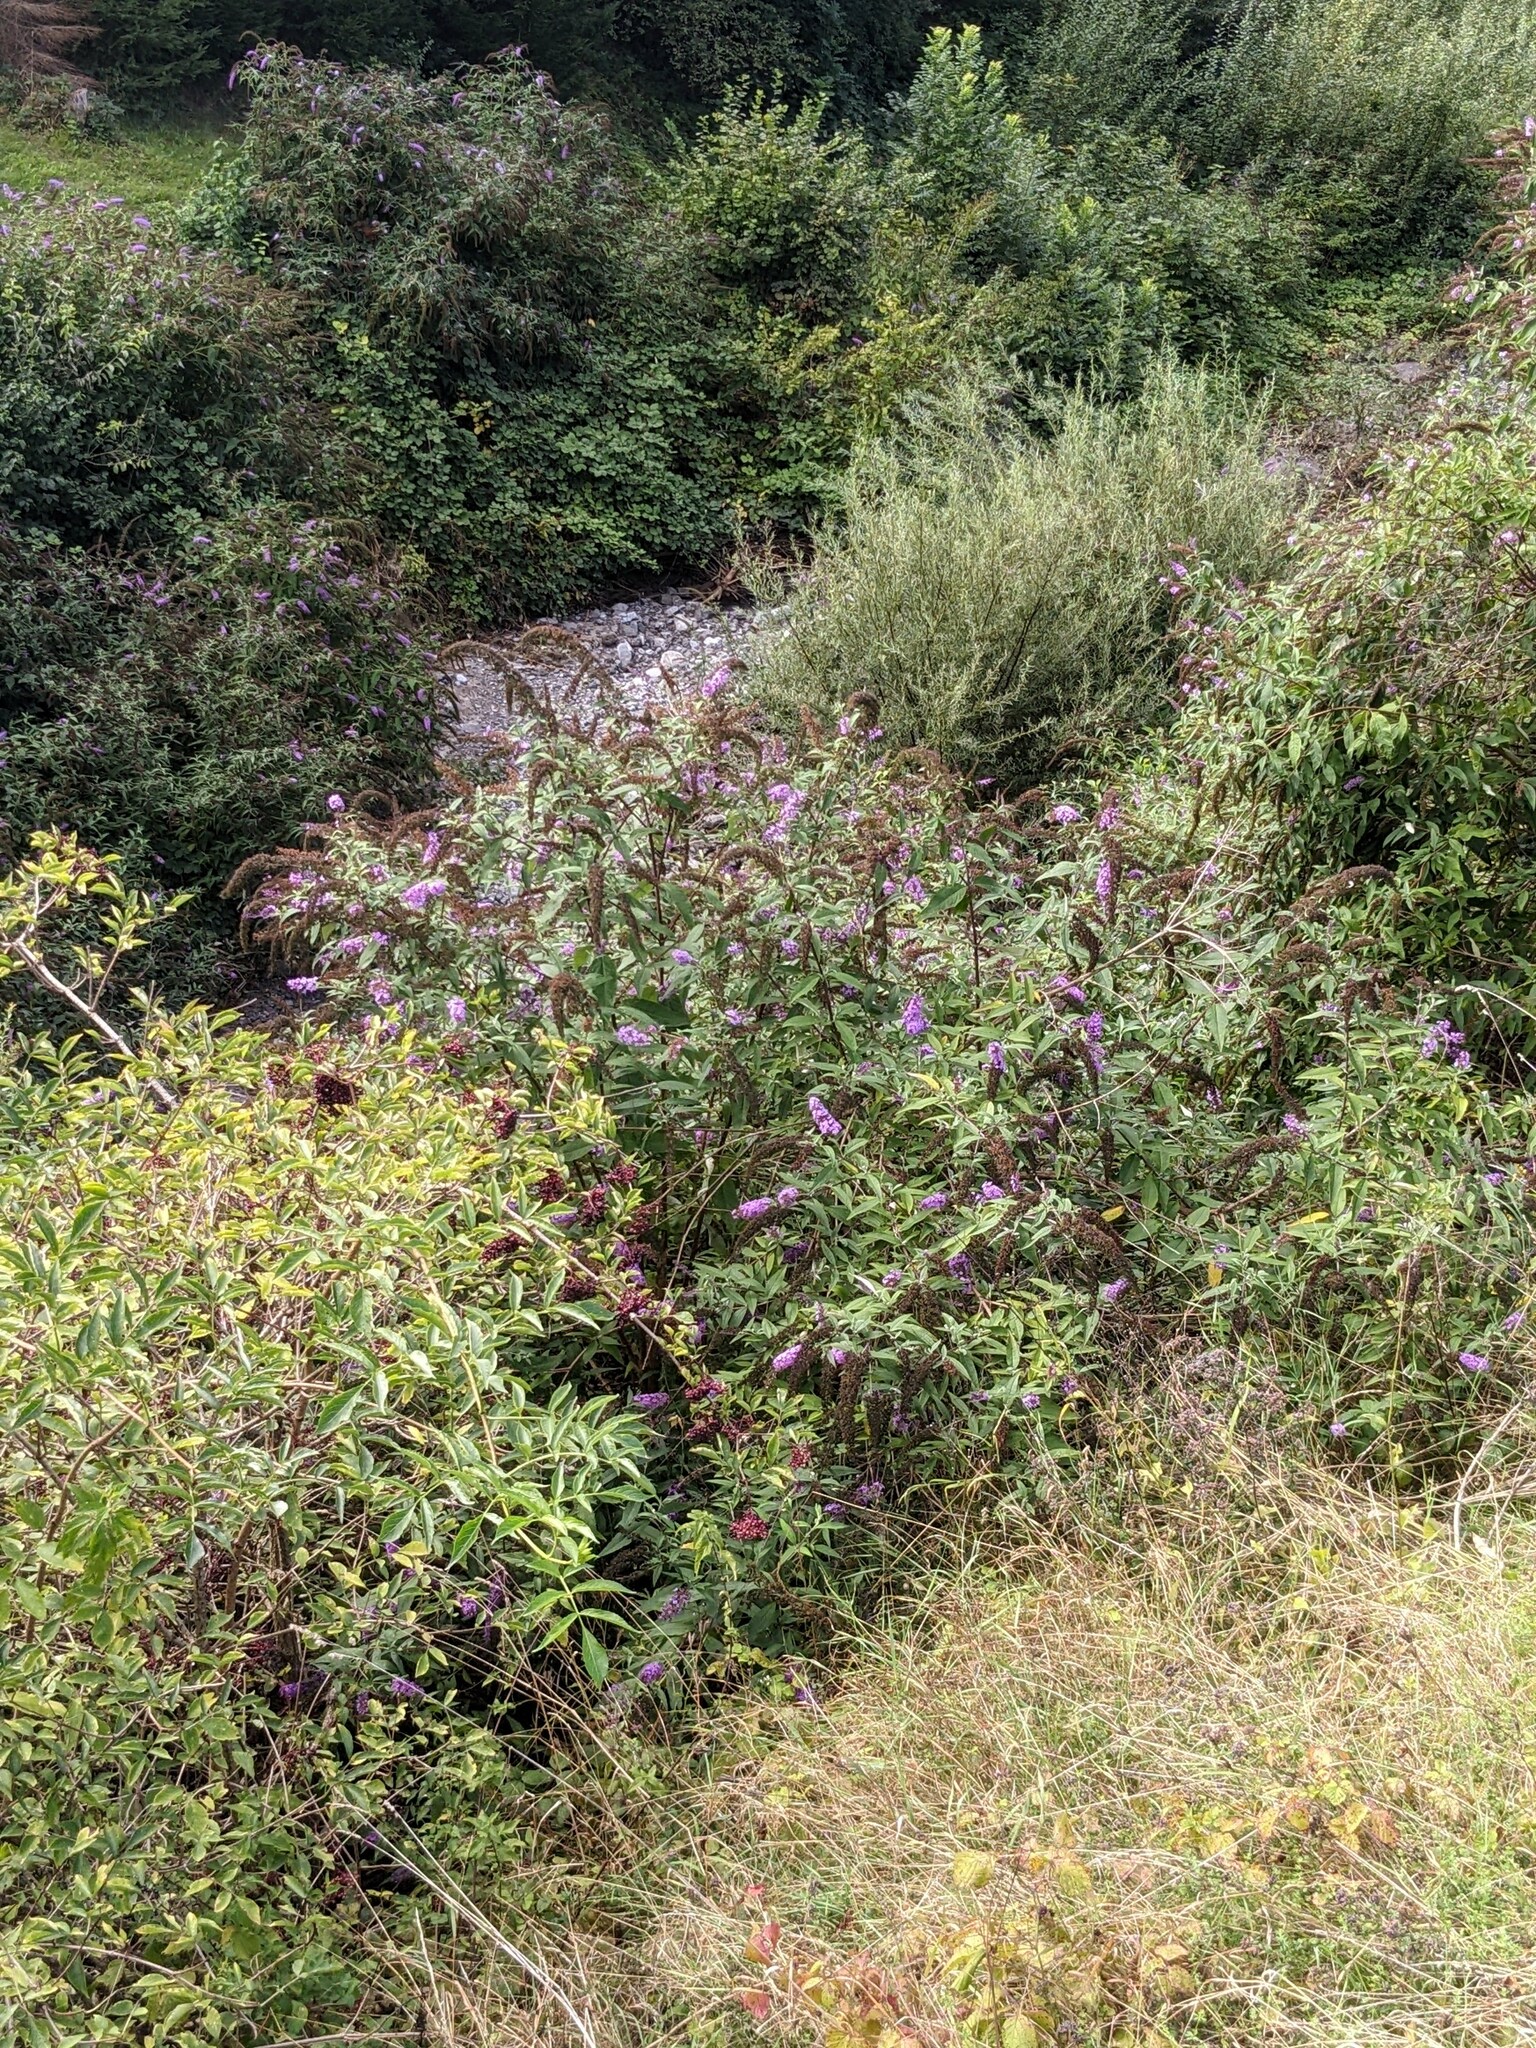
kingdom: Plantae
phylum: Tracheophyta
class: Magnoliopsida
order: Lamiales
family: Scrophulariaceae
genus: Buddleja
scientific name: Buddleja davidii
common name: Butterfly-bush
